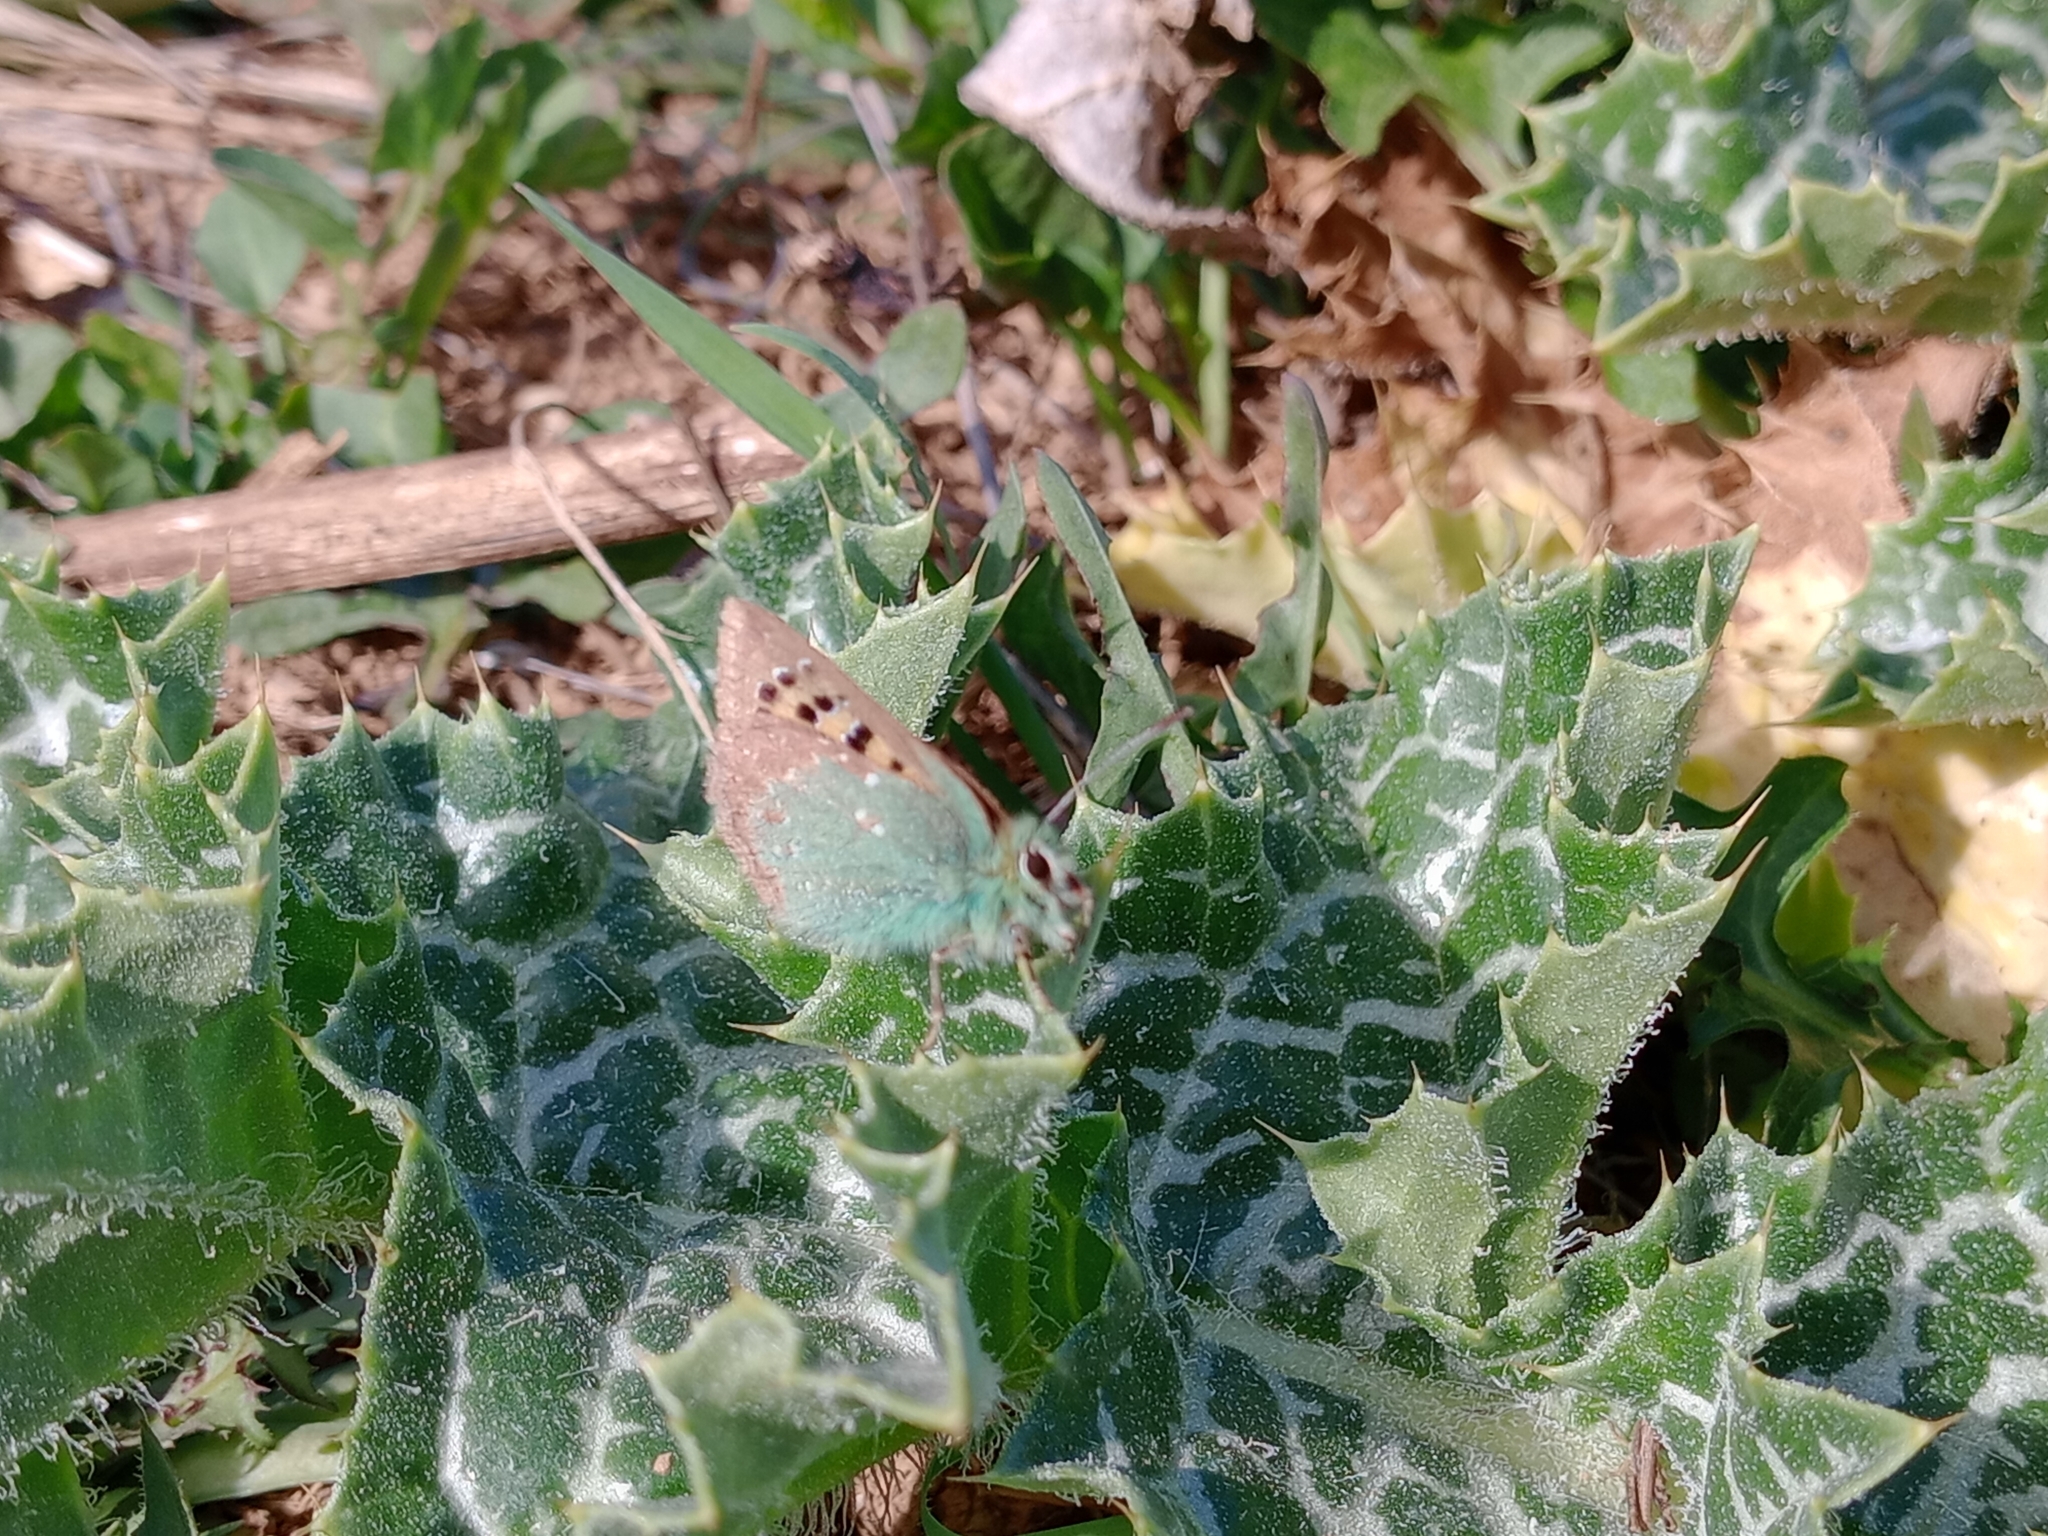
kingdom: Animalia
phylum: Arthropoda
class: Insecta
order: Lepidoptera
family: Lycaenidae
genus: Tomares
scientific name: Tomares ballus
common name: Provence hairstreak
